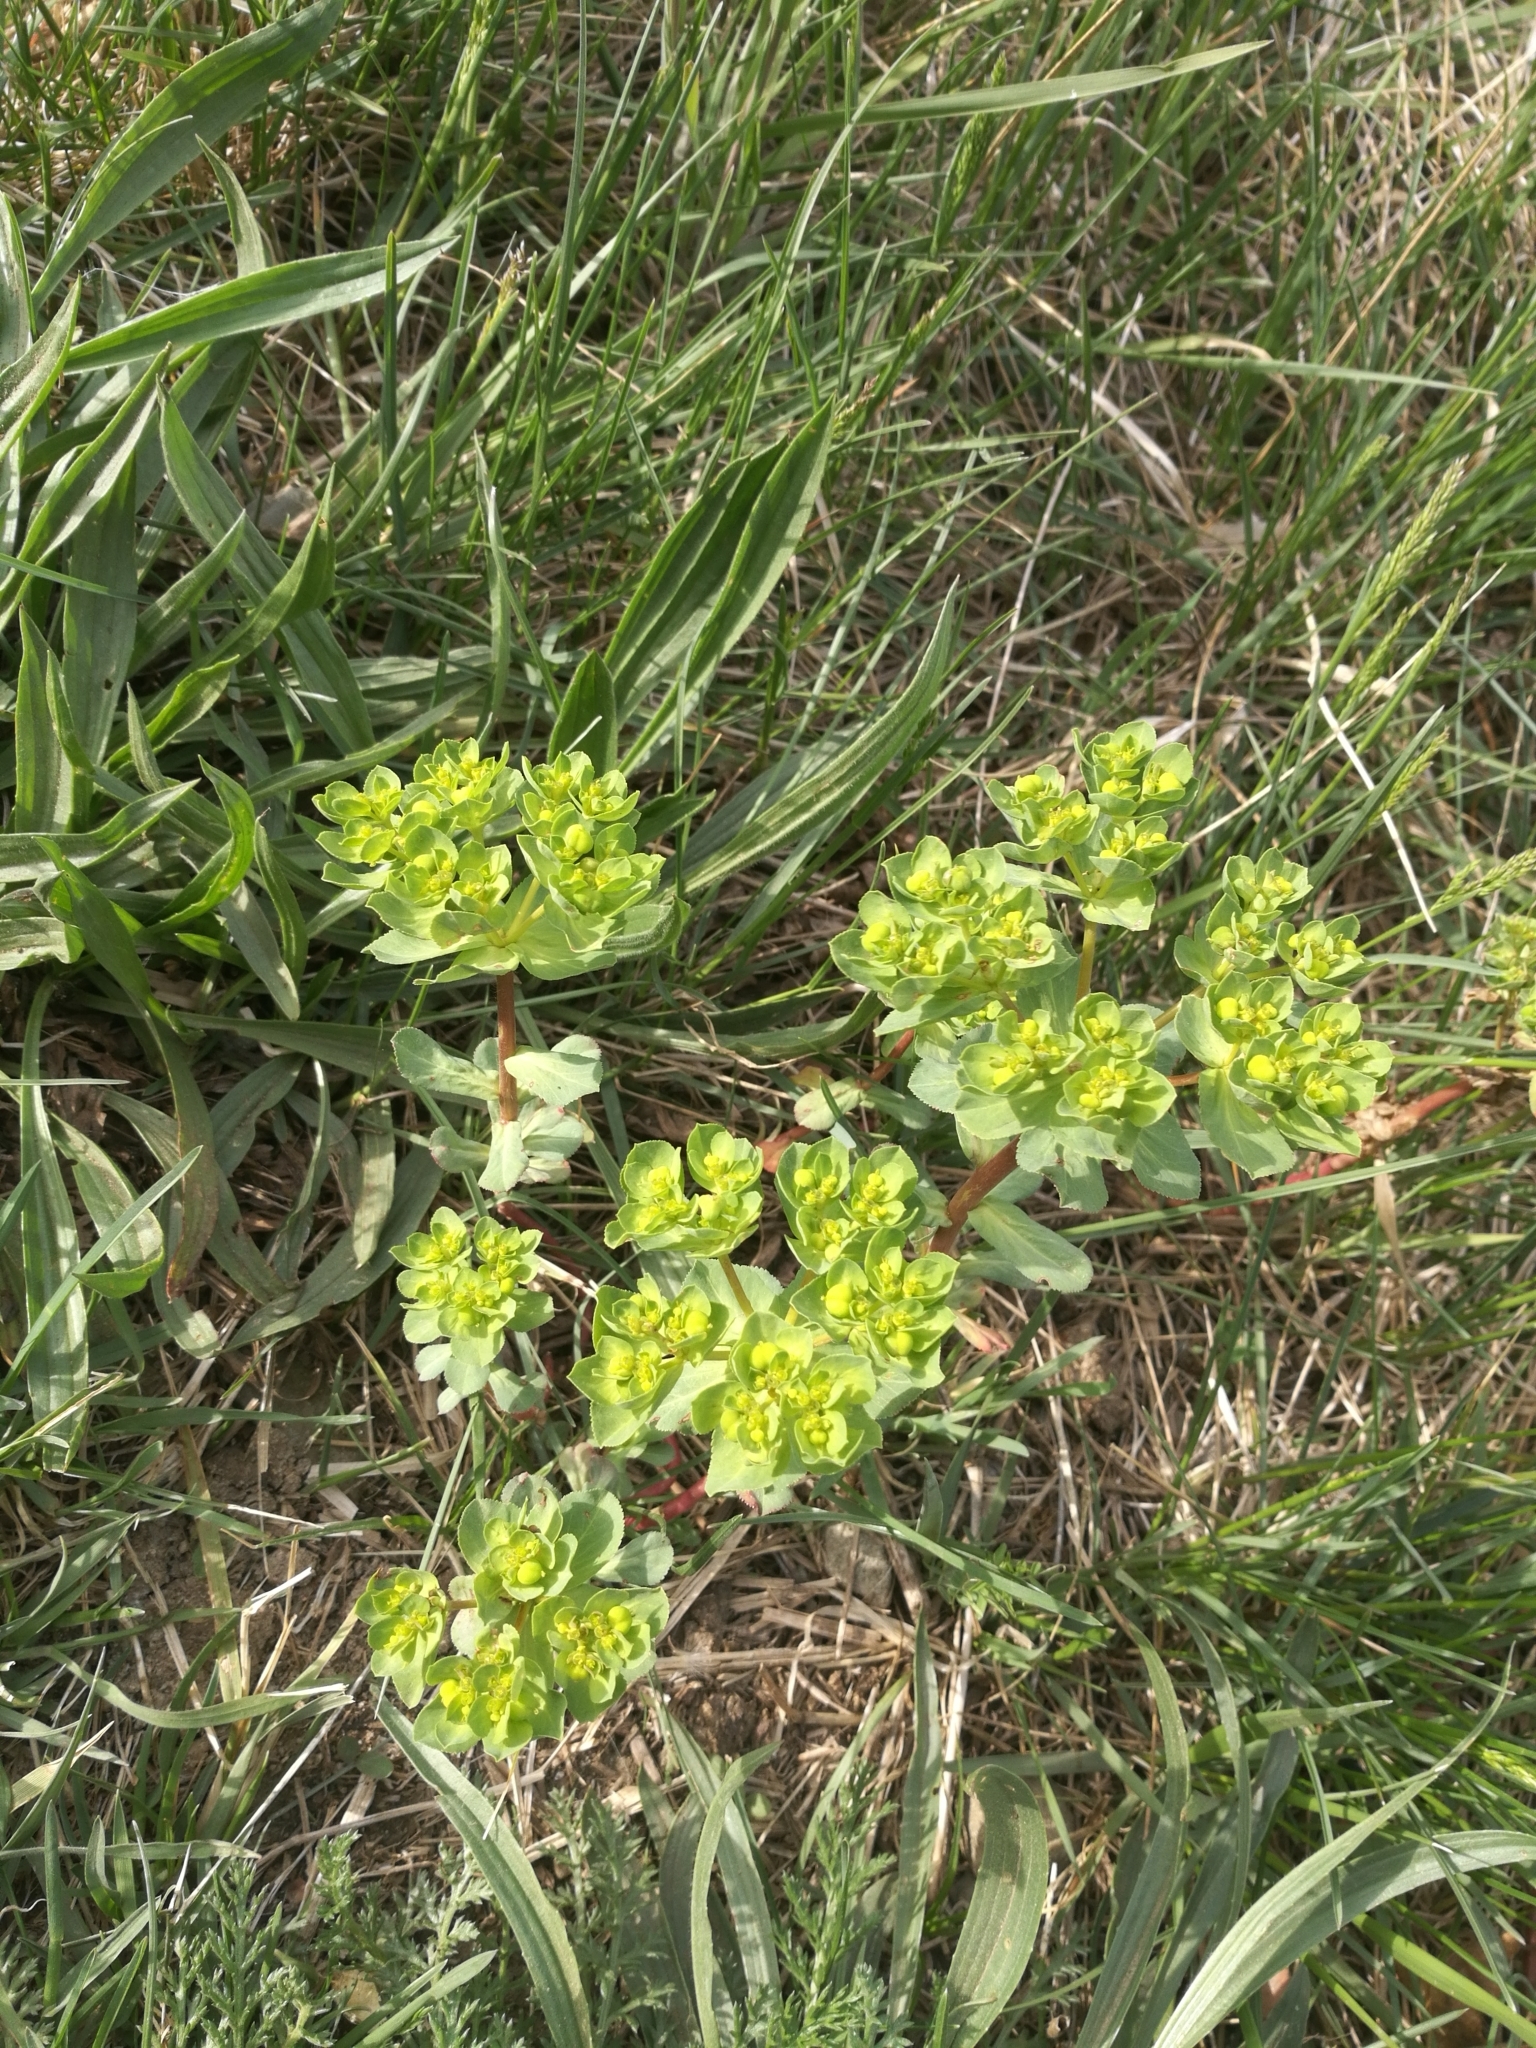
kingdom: Plantae
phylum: Tracheophyta
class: Magnoliopsida
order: Malpighiales
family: Euphorbiaceae
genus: Euphorbia
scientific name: Euphorbia helioscopia
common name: Sun spurge
